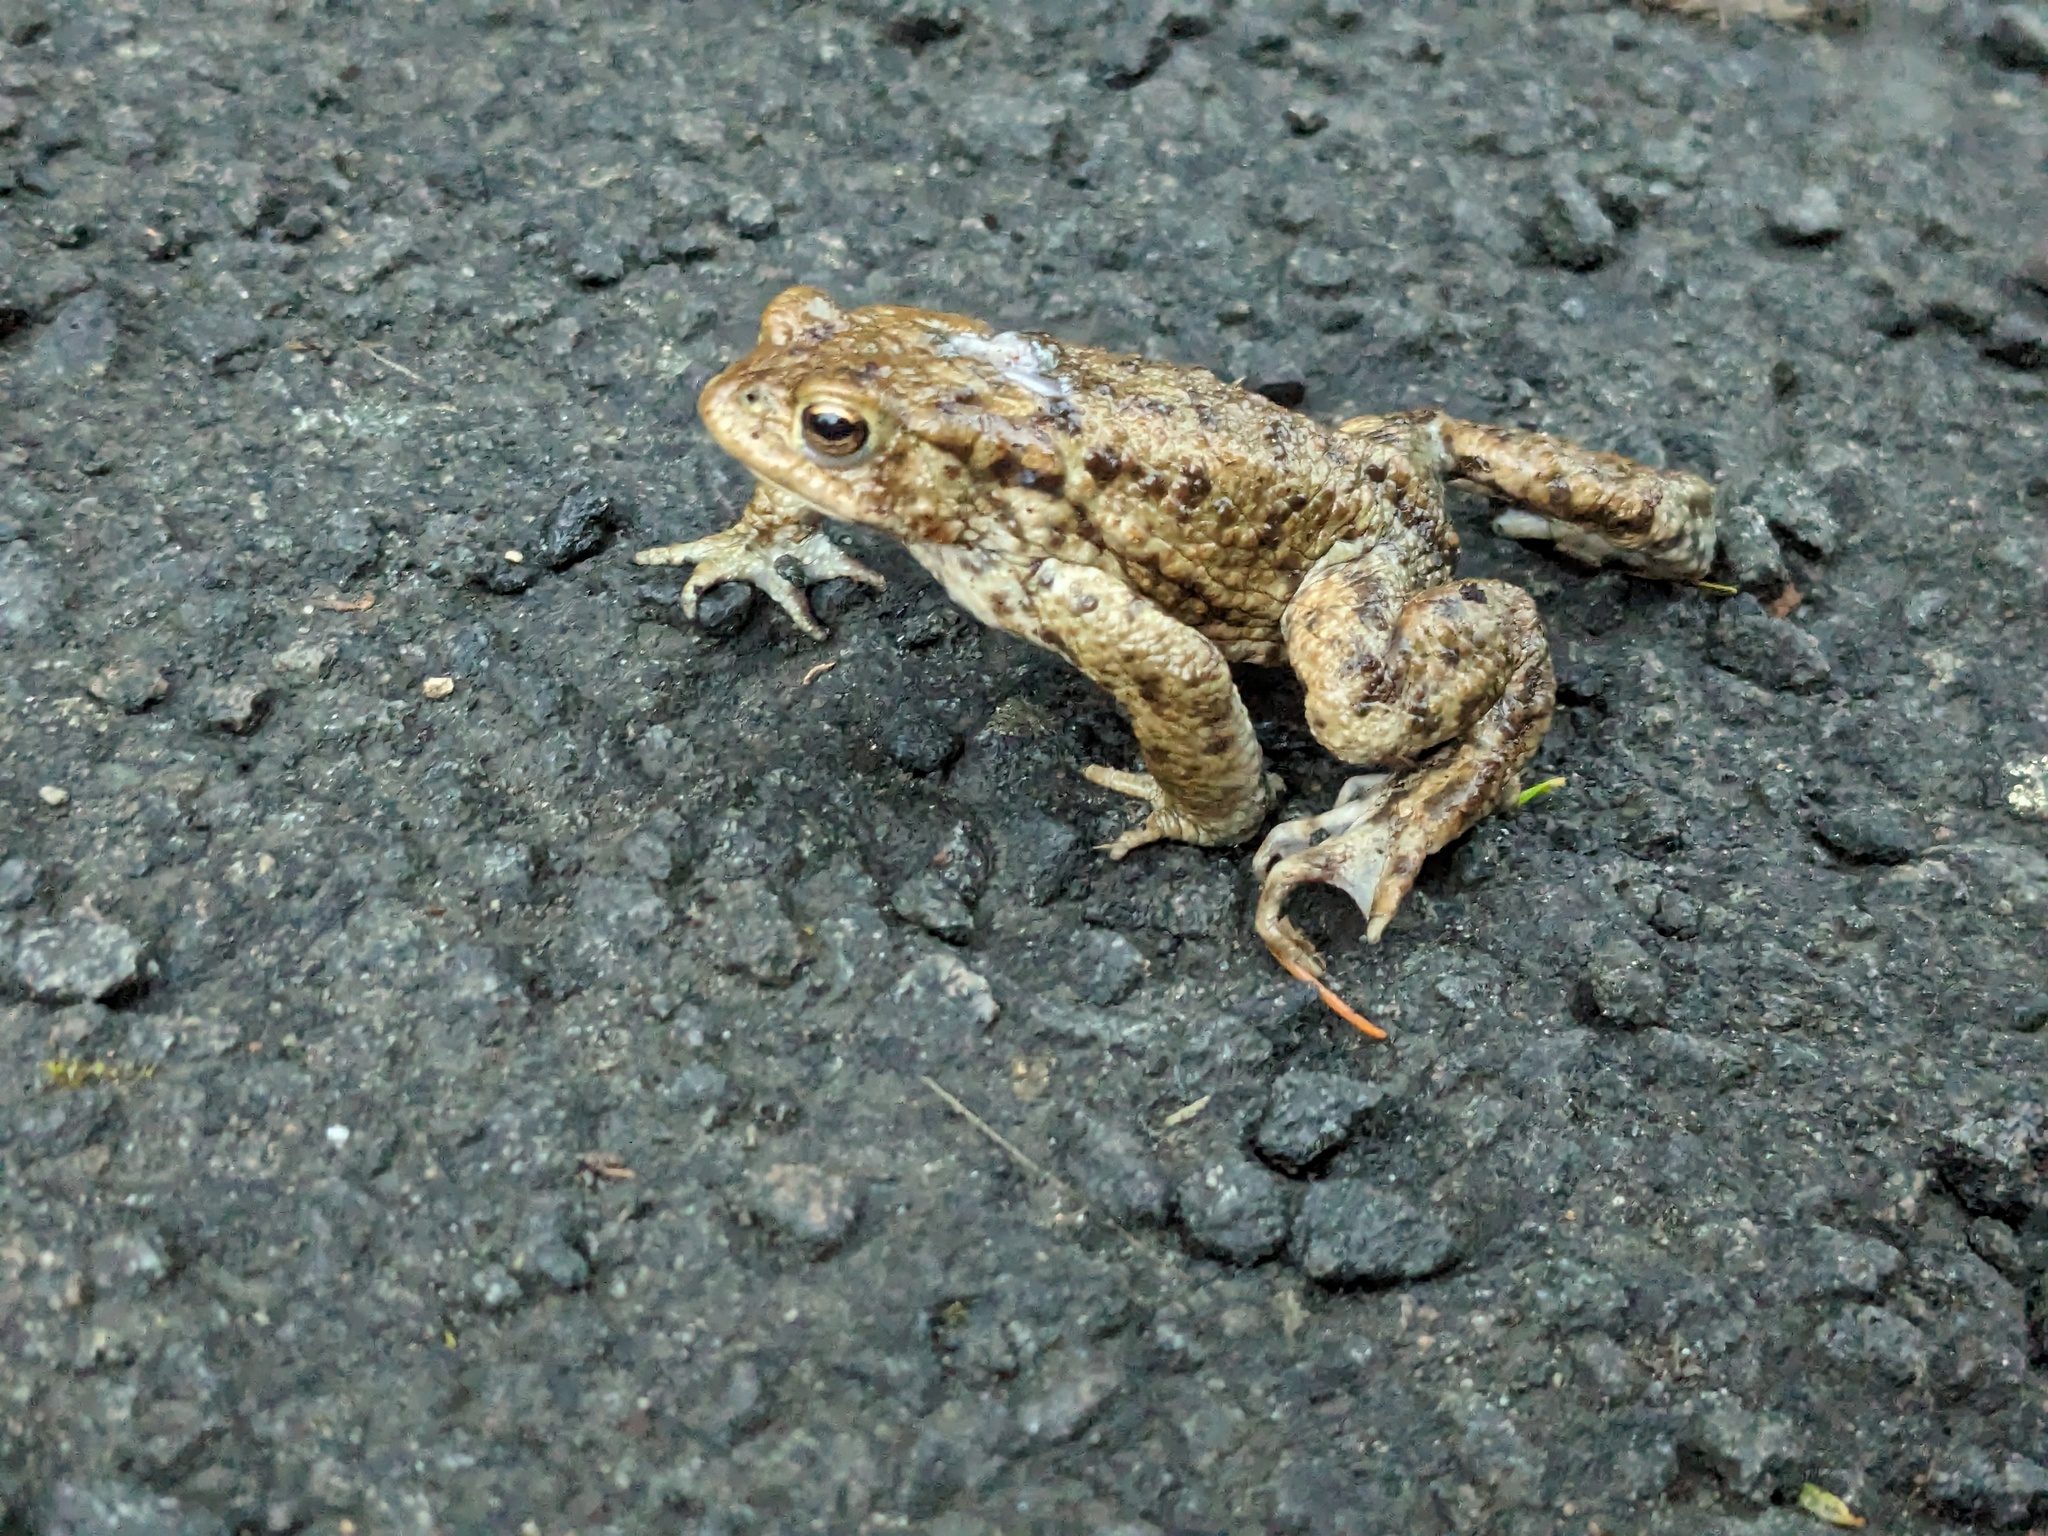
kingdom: Animalia
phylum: Chordata
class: Amphibia
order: Anura
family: Bufonidae
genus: Bufo
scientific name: Bufo bufo
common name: Common toad
